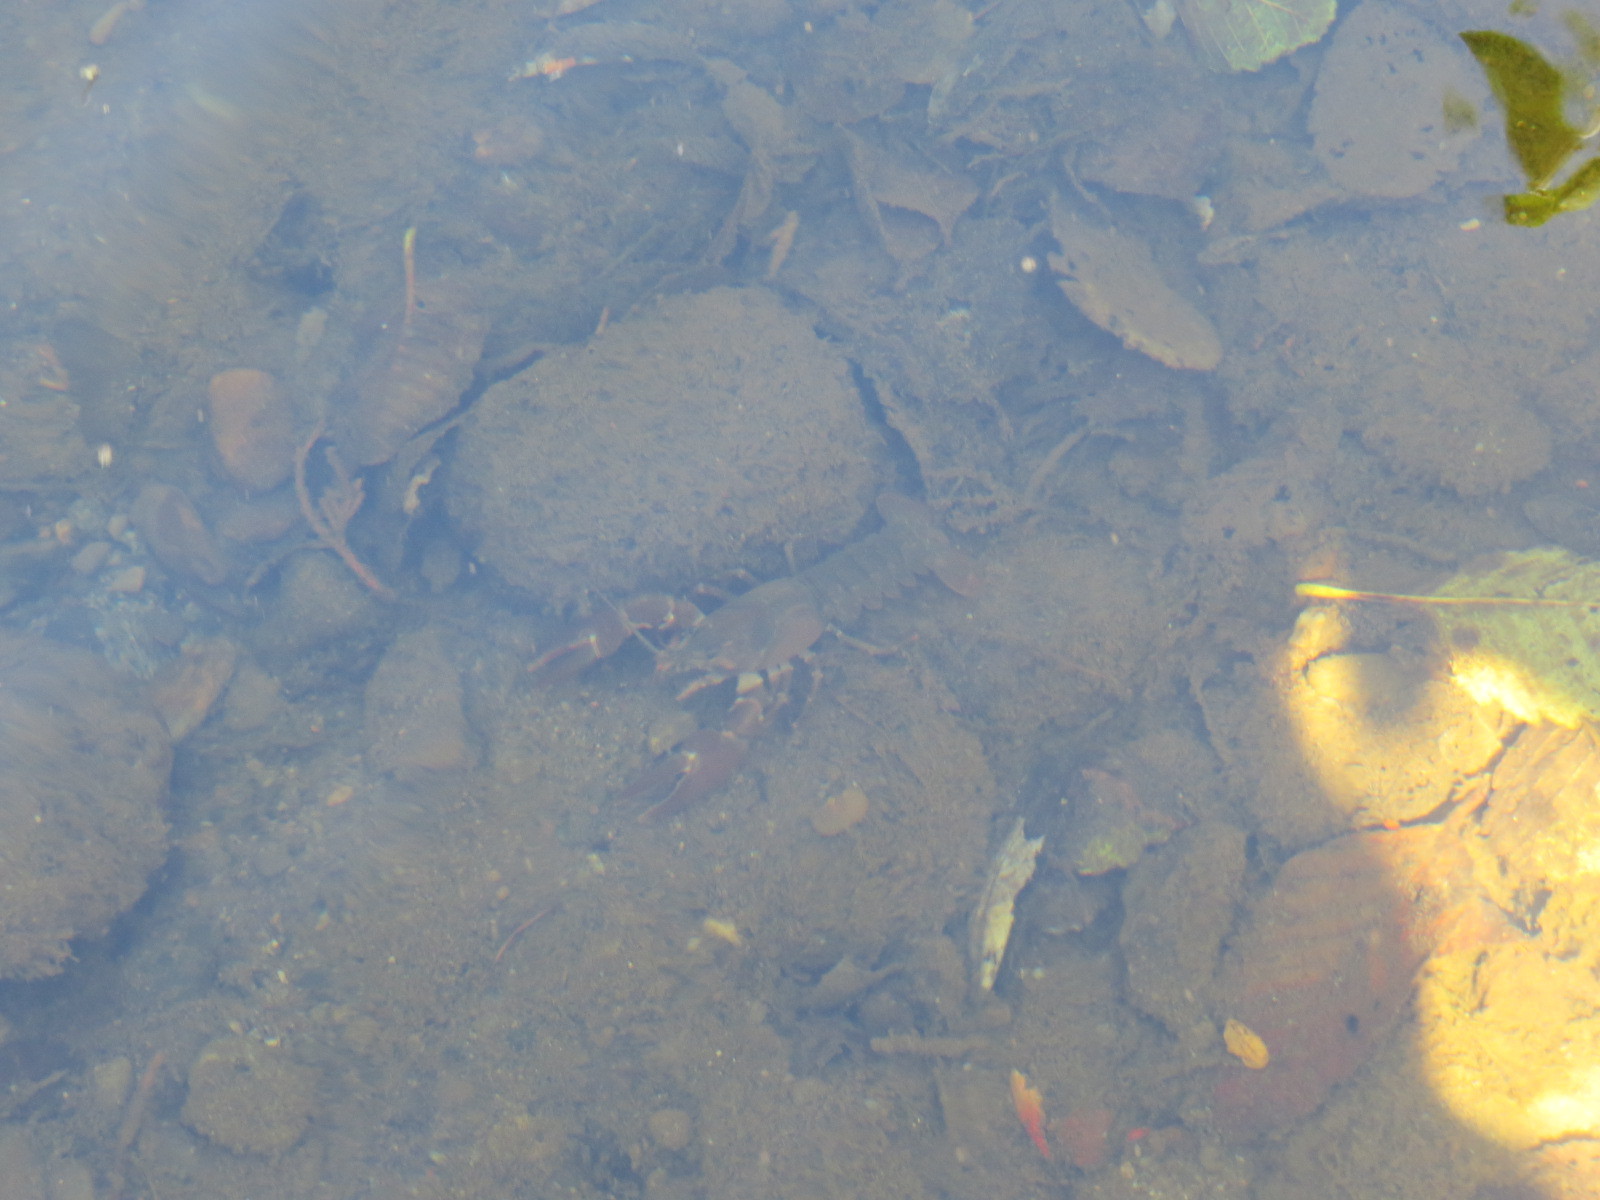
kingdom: Animalia
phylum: Arthropoda
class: Malacostraca
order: Decapoda
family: Astacidae
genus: Pacifastacus
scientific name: Pacifastacus leniusculus
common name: Signal crayfish
